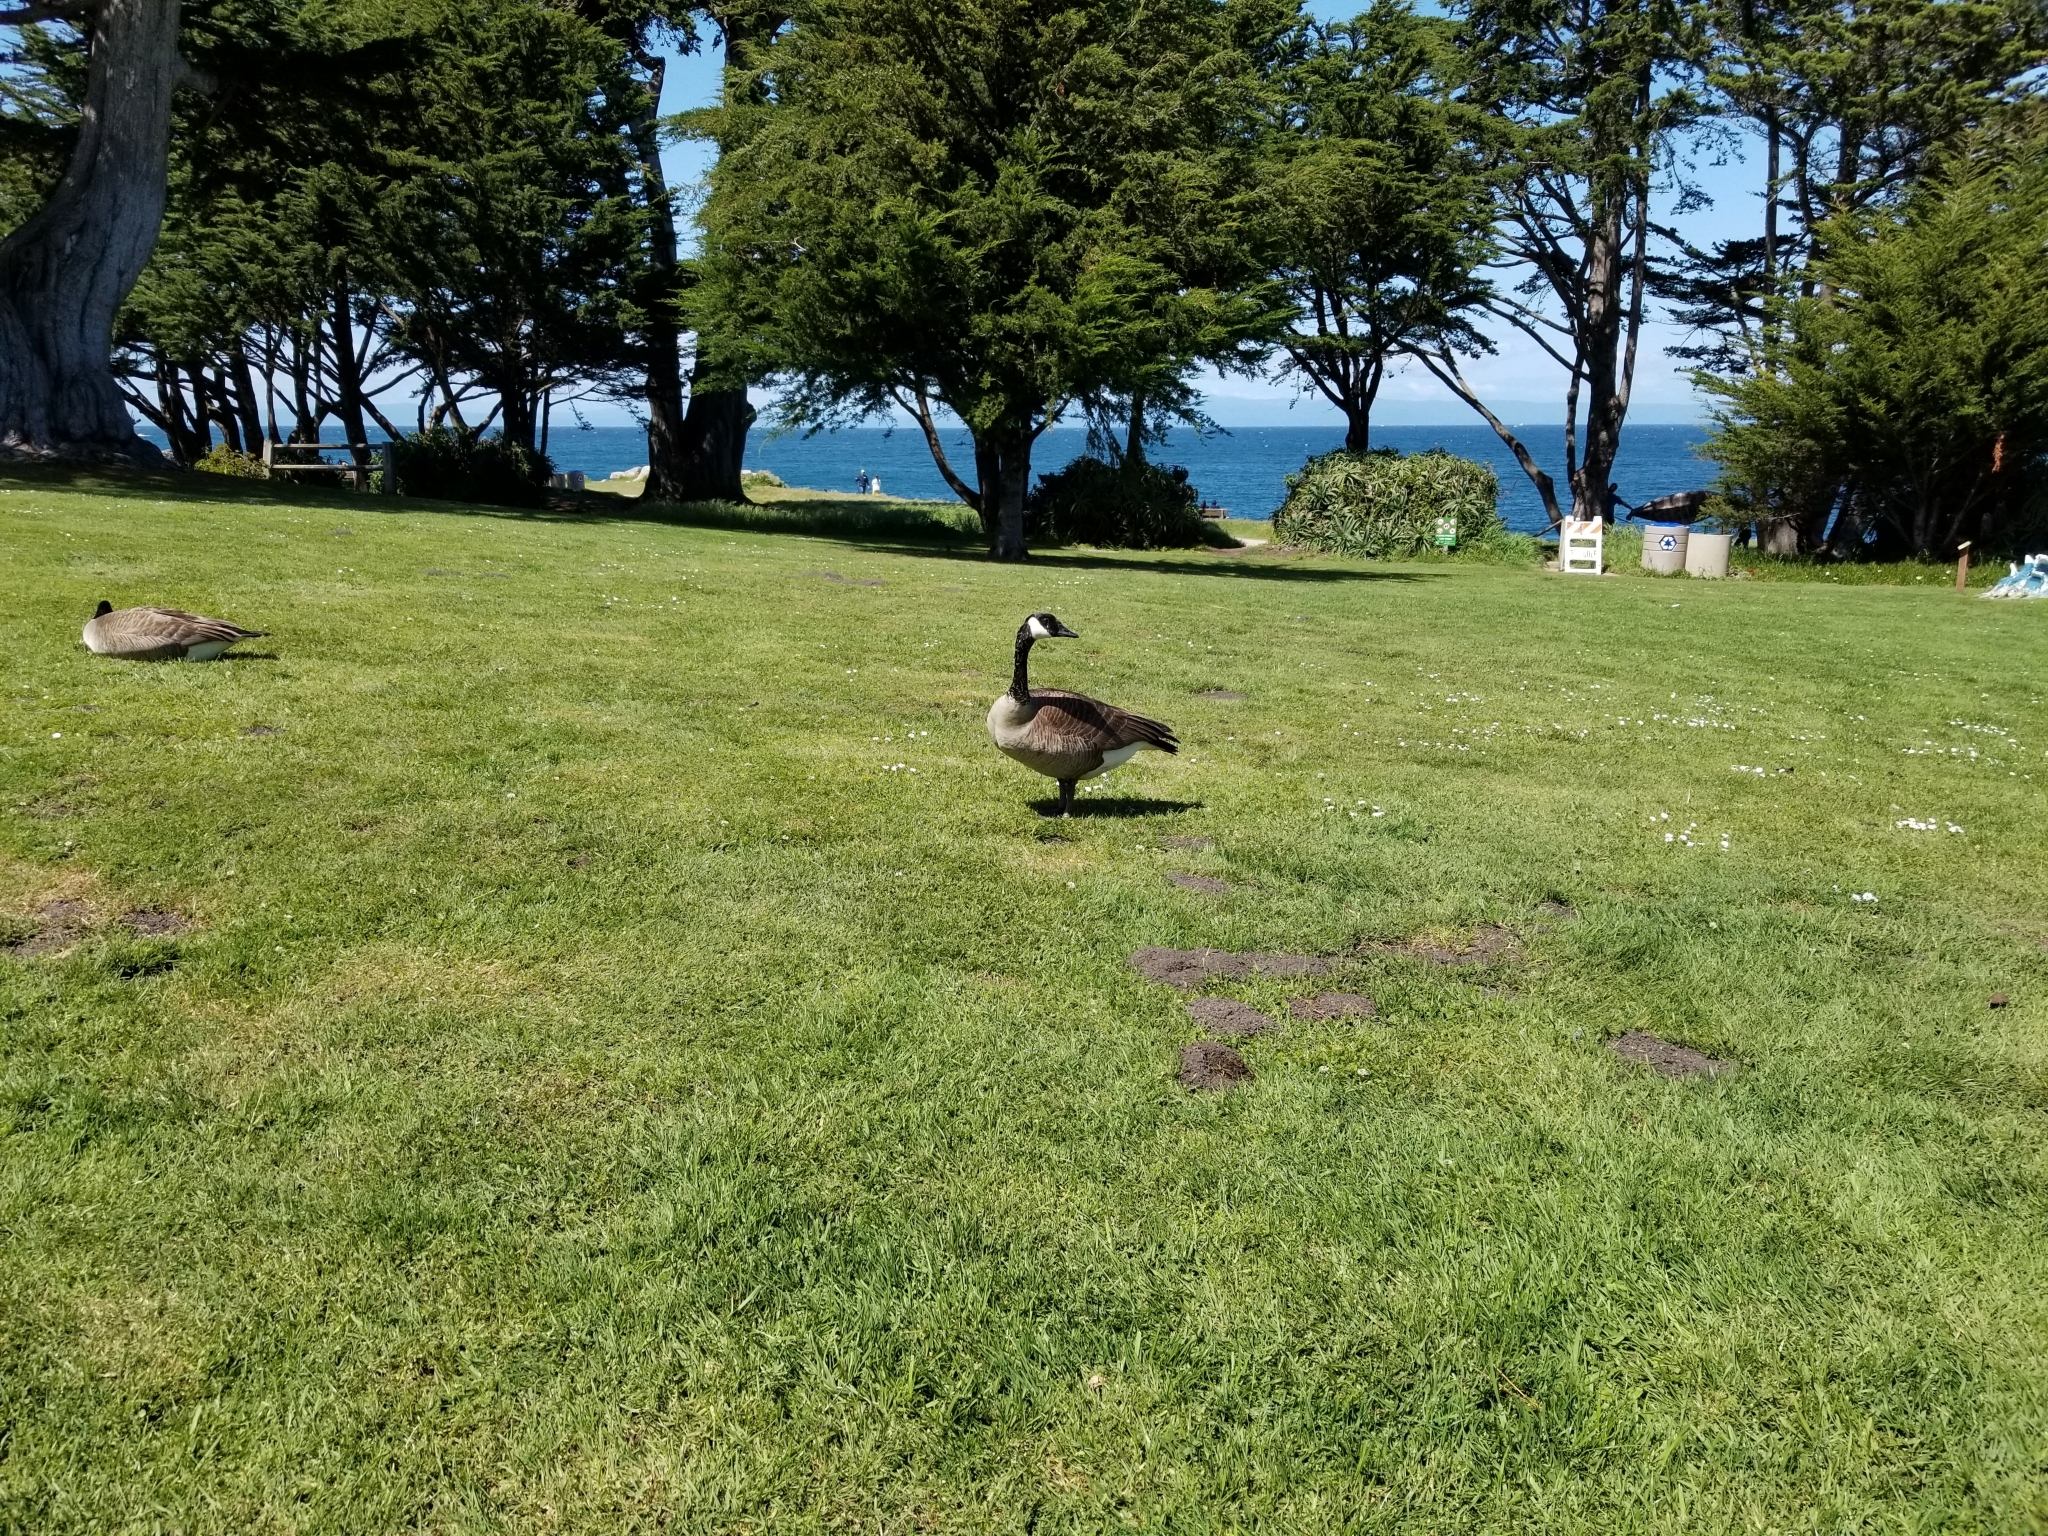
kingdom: Animalia
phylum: Chordata
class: Aves
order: Anseriformes
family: Anatidae
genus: Branta
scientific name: Branta canadensis
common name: Canada goose
